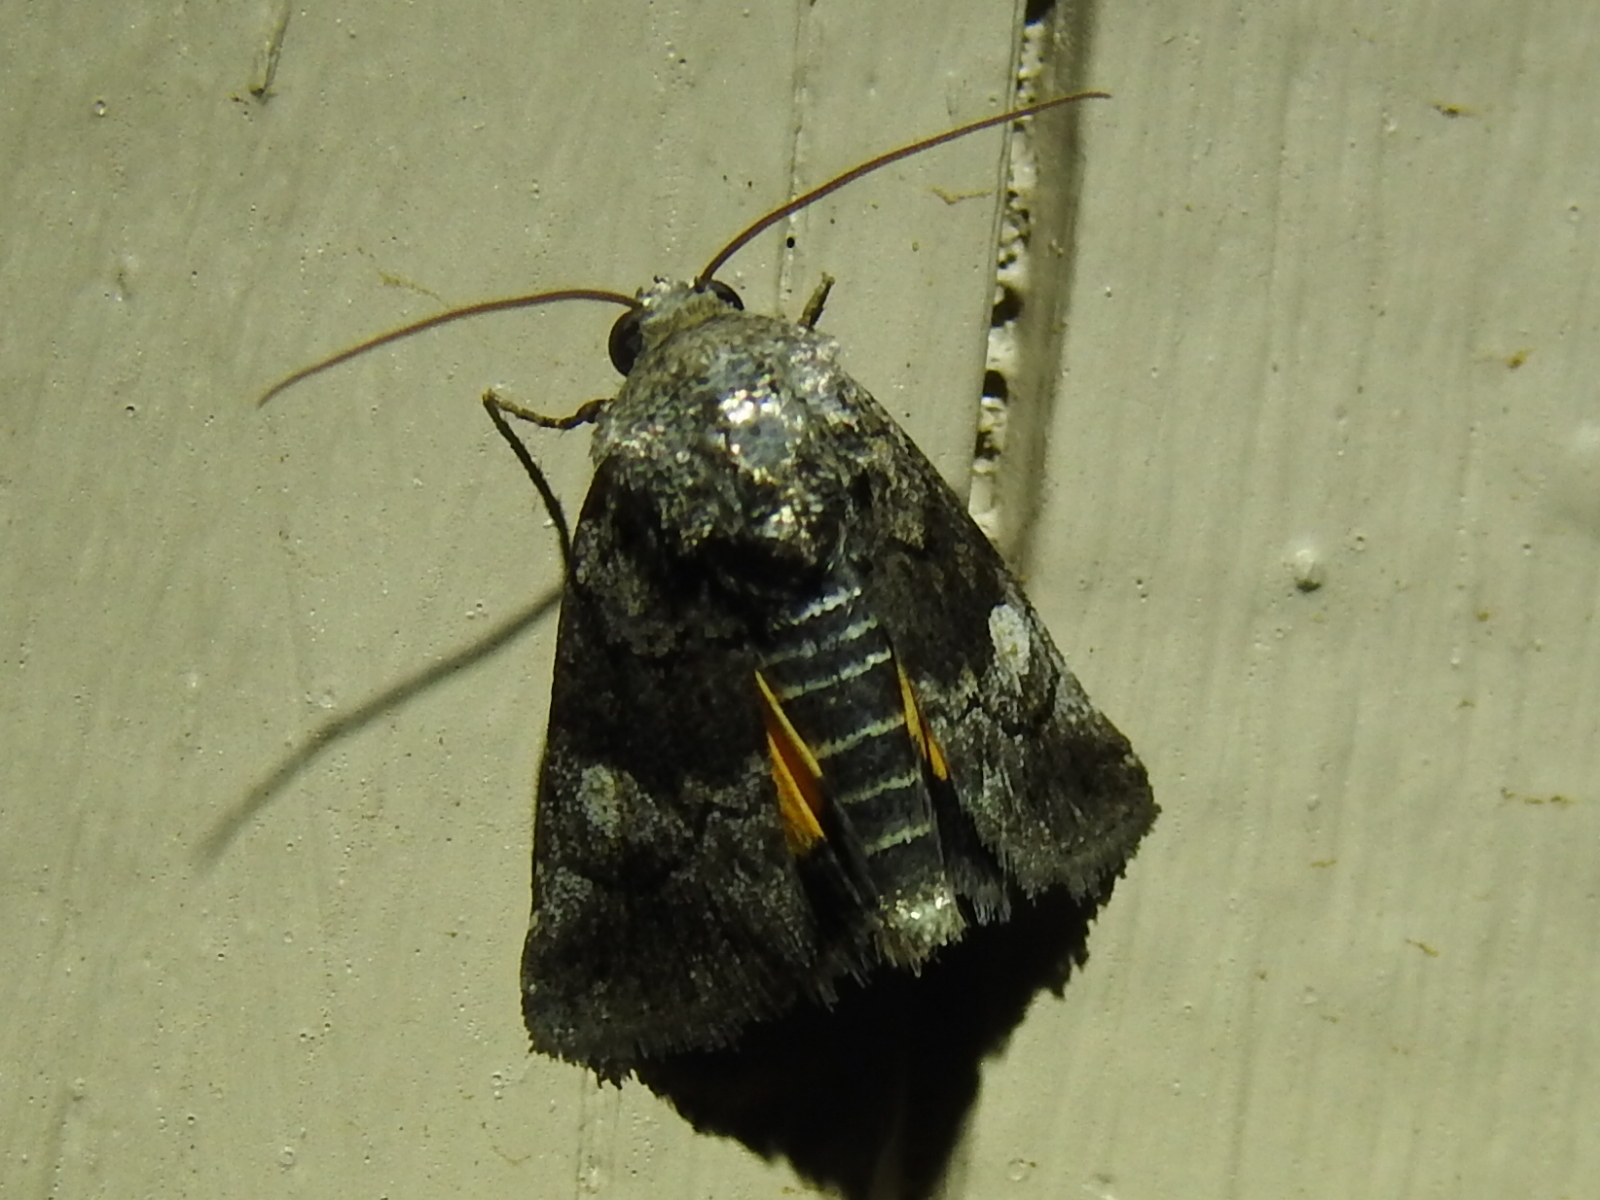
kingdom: Animalia
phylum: Arthropoda
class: Insecta
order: Lepidoptera
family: Noctuidae
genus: Copanarta
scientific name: Copanarta aurea
